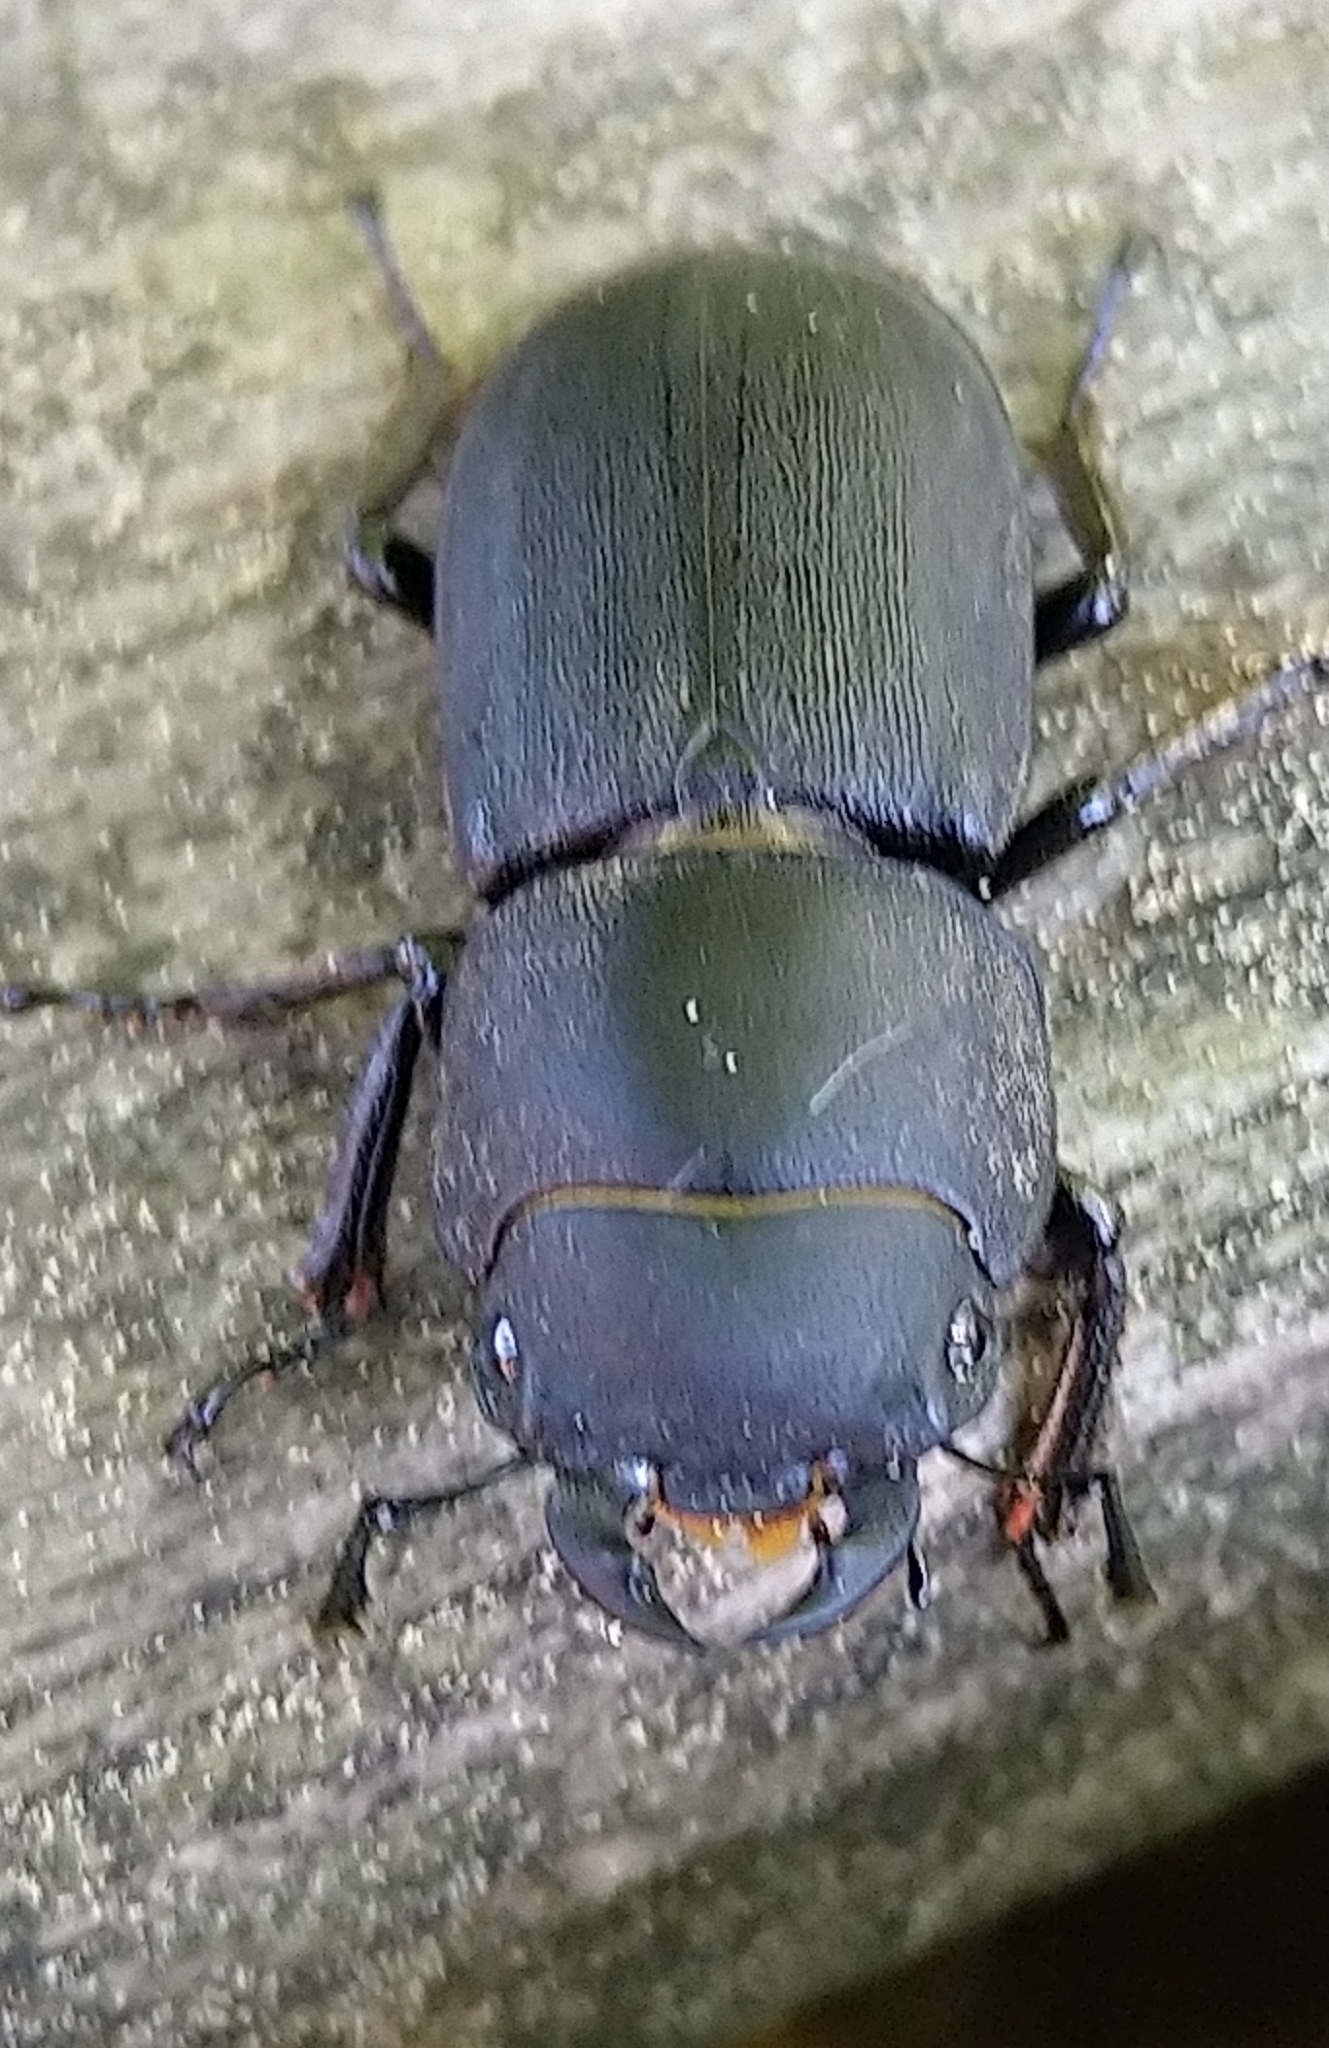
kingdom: Animalia
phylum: Arthropoda
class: Insecta
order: Coleoptera
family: Lucanidae
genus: Dorcus
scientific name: Dorcus parallelipipedus
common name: Lesser stag beetle
